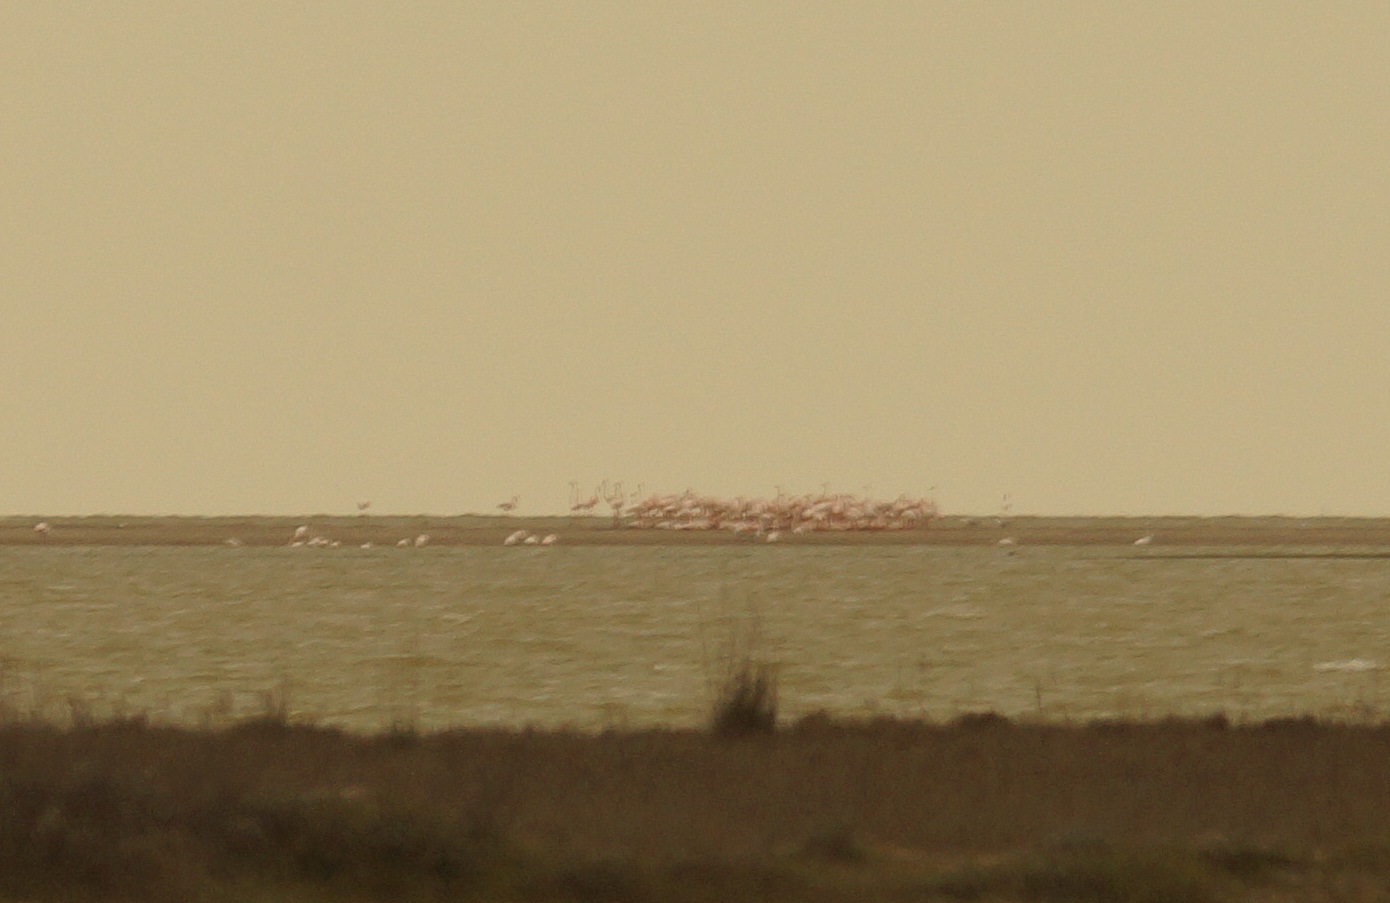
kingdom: Animalia
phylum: Chordata
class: Aves
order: Phoenicopteriformes
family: Phoenicopteridae
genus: Phoenicopterus
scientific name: Phoenicopterus roseus
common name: Greater flamingo
